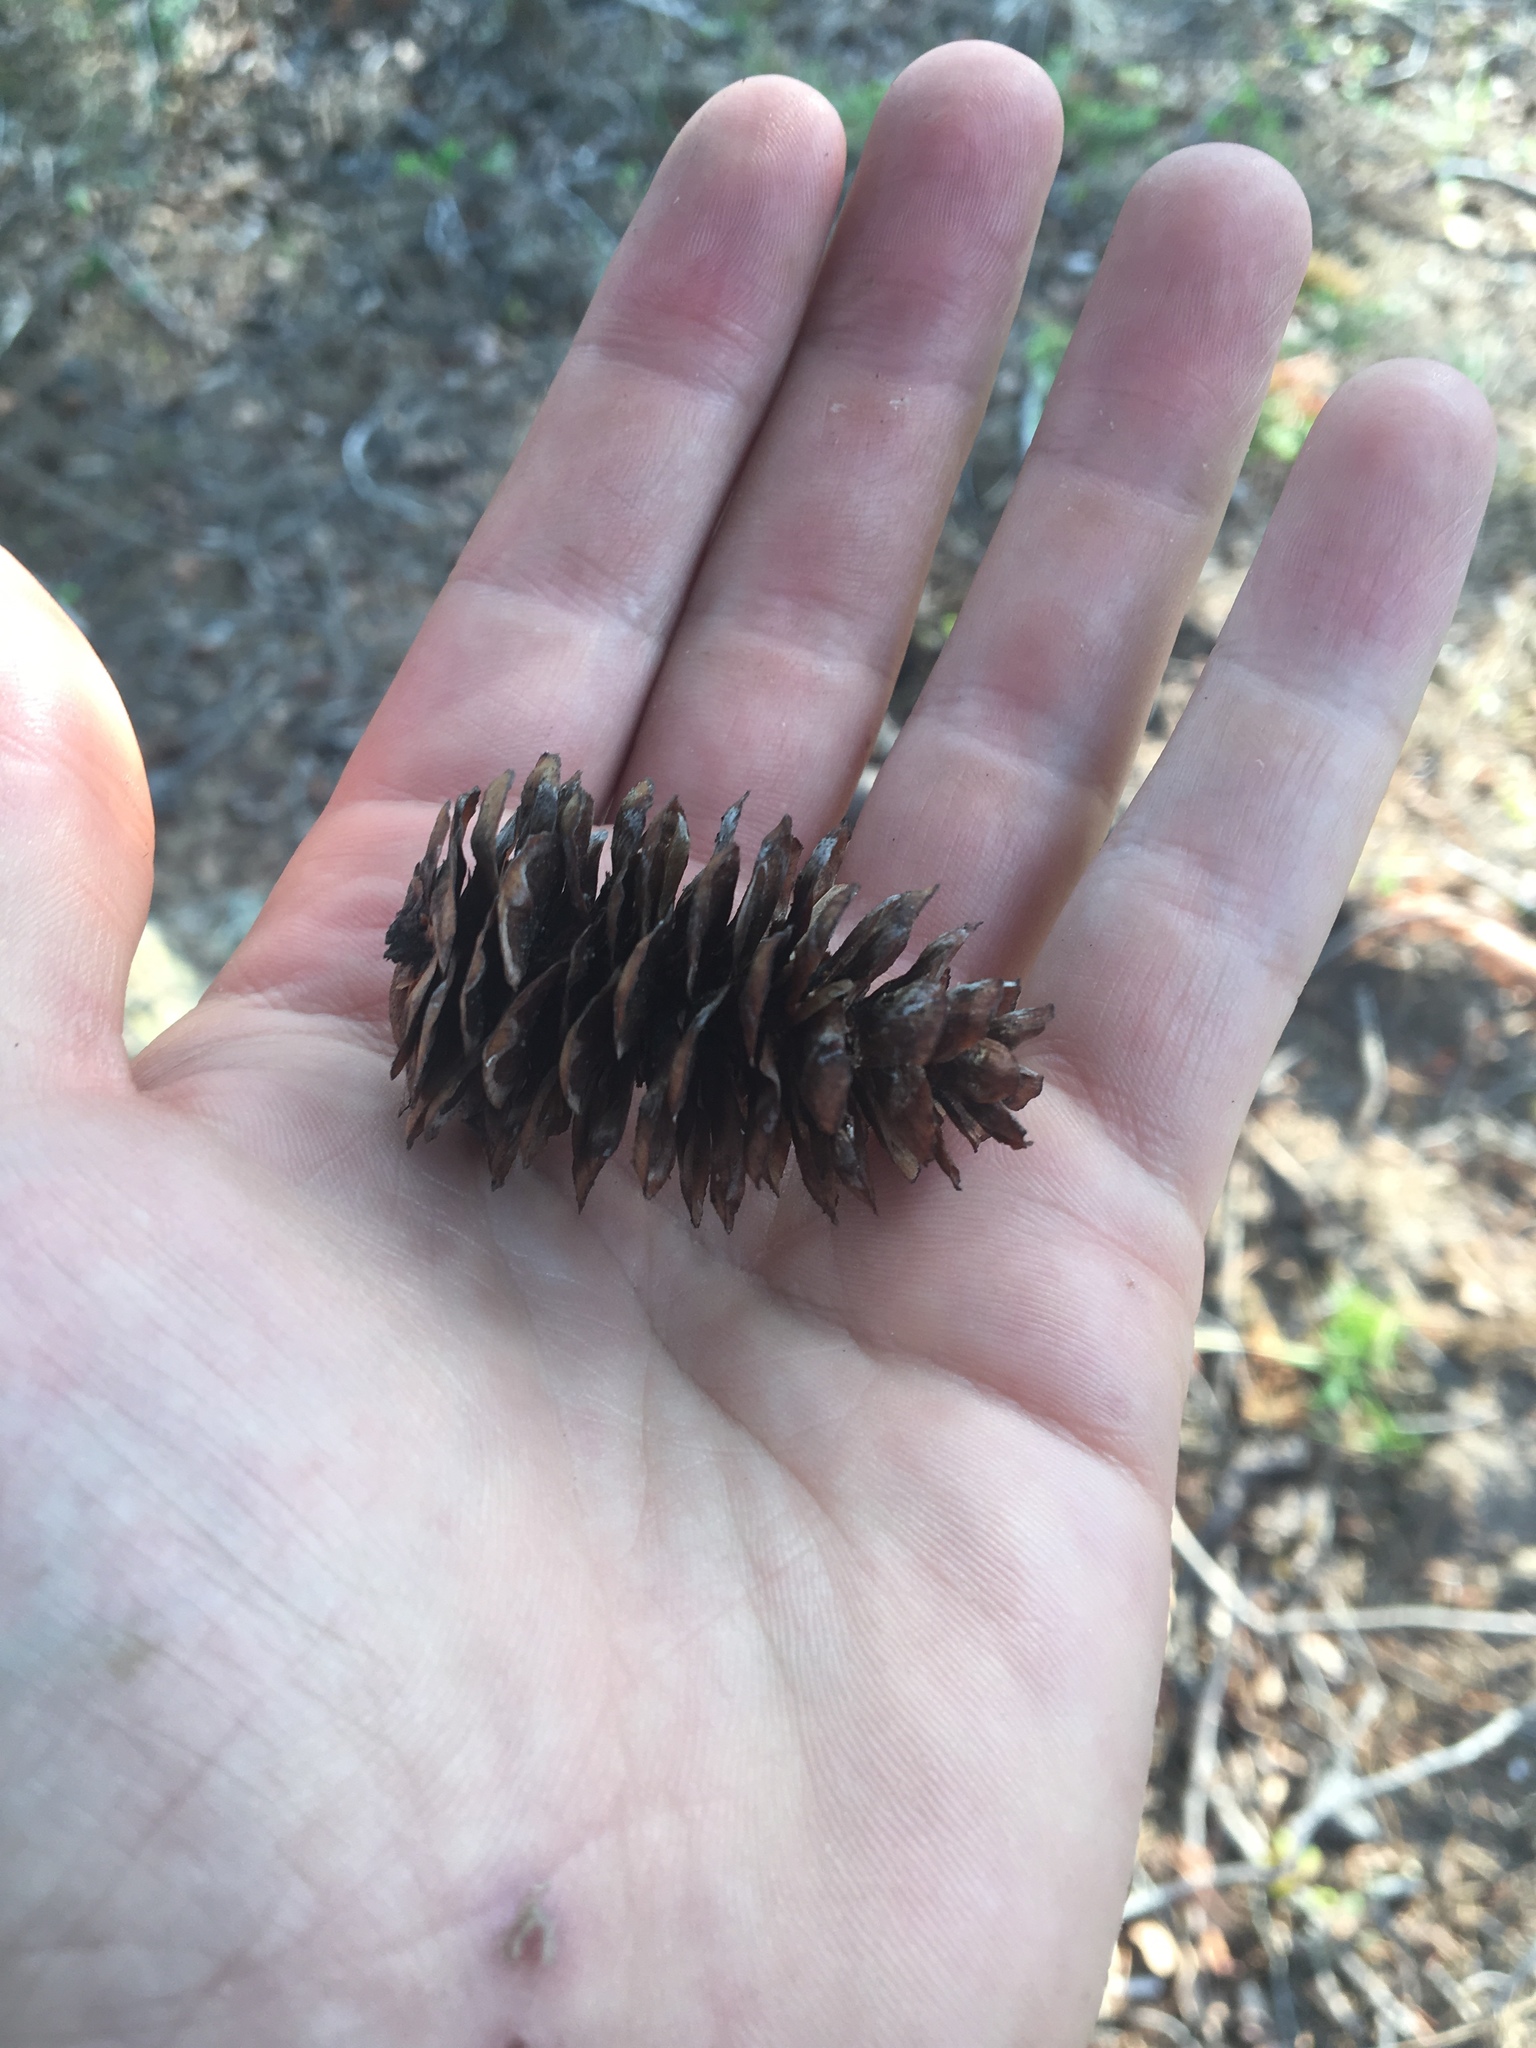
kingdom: Plantae
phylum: Tracheophyta
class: Pinopsida
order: Pinales
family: Pinaceae
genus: Picea
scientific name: Picea glauca
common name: White spruce
